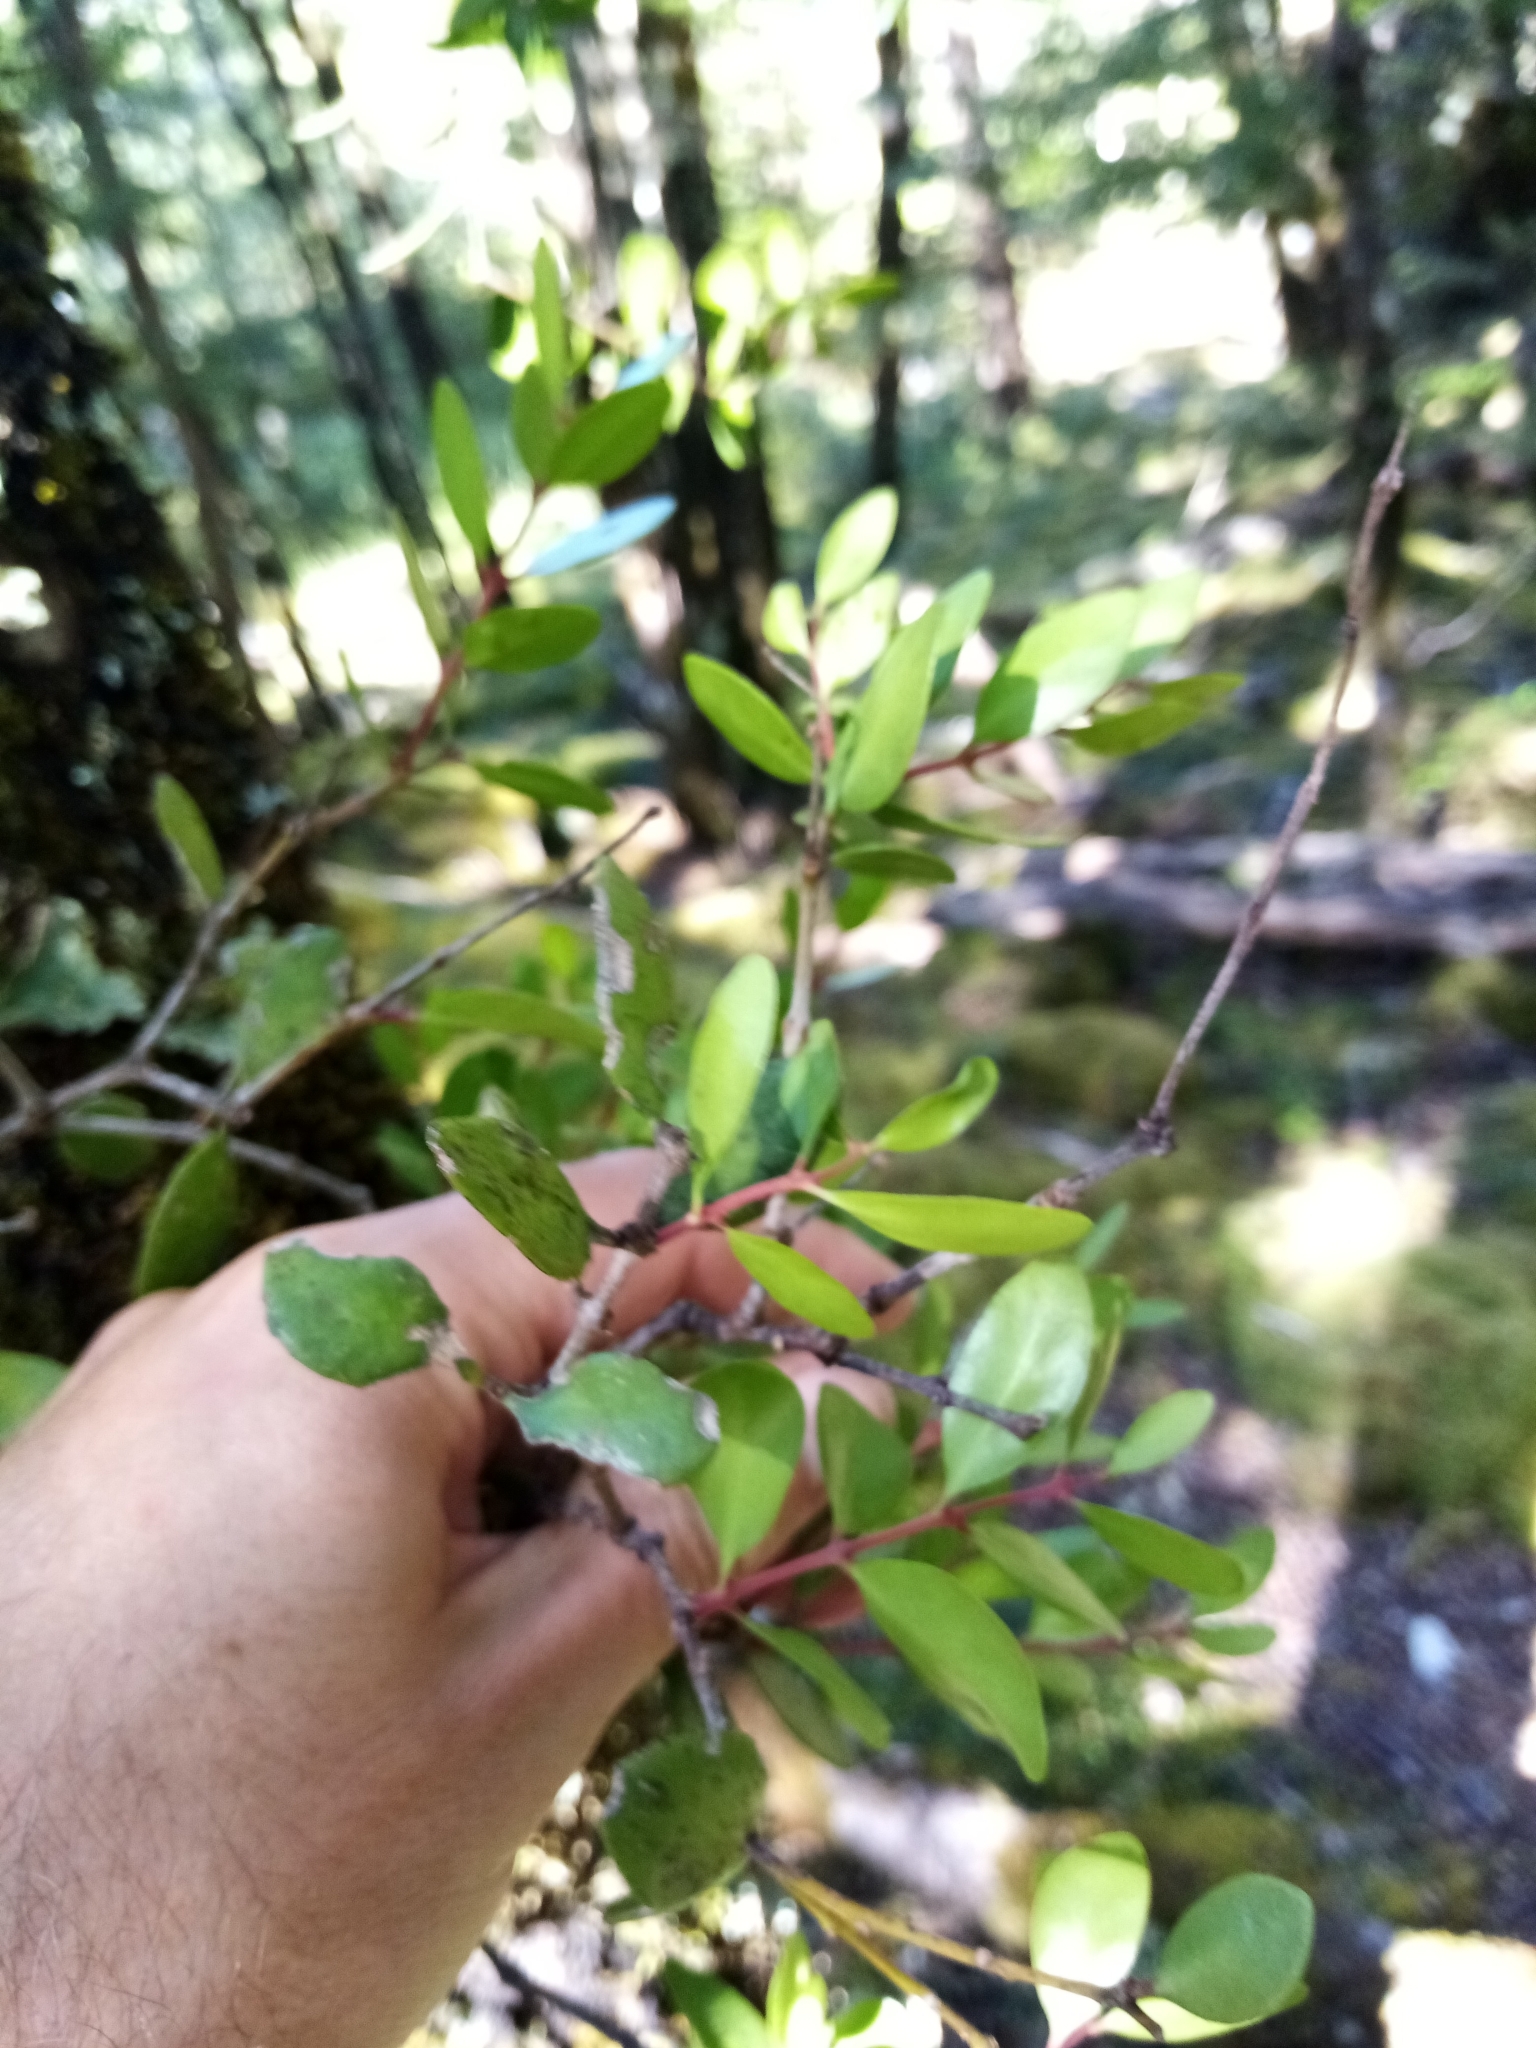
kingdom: Plantae
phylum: Tracheophyta
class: Magnoliopsida
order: Santalales
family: Loranthaceae
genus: Peraxilla
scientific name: Peraxilla tetrapetala
